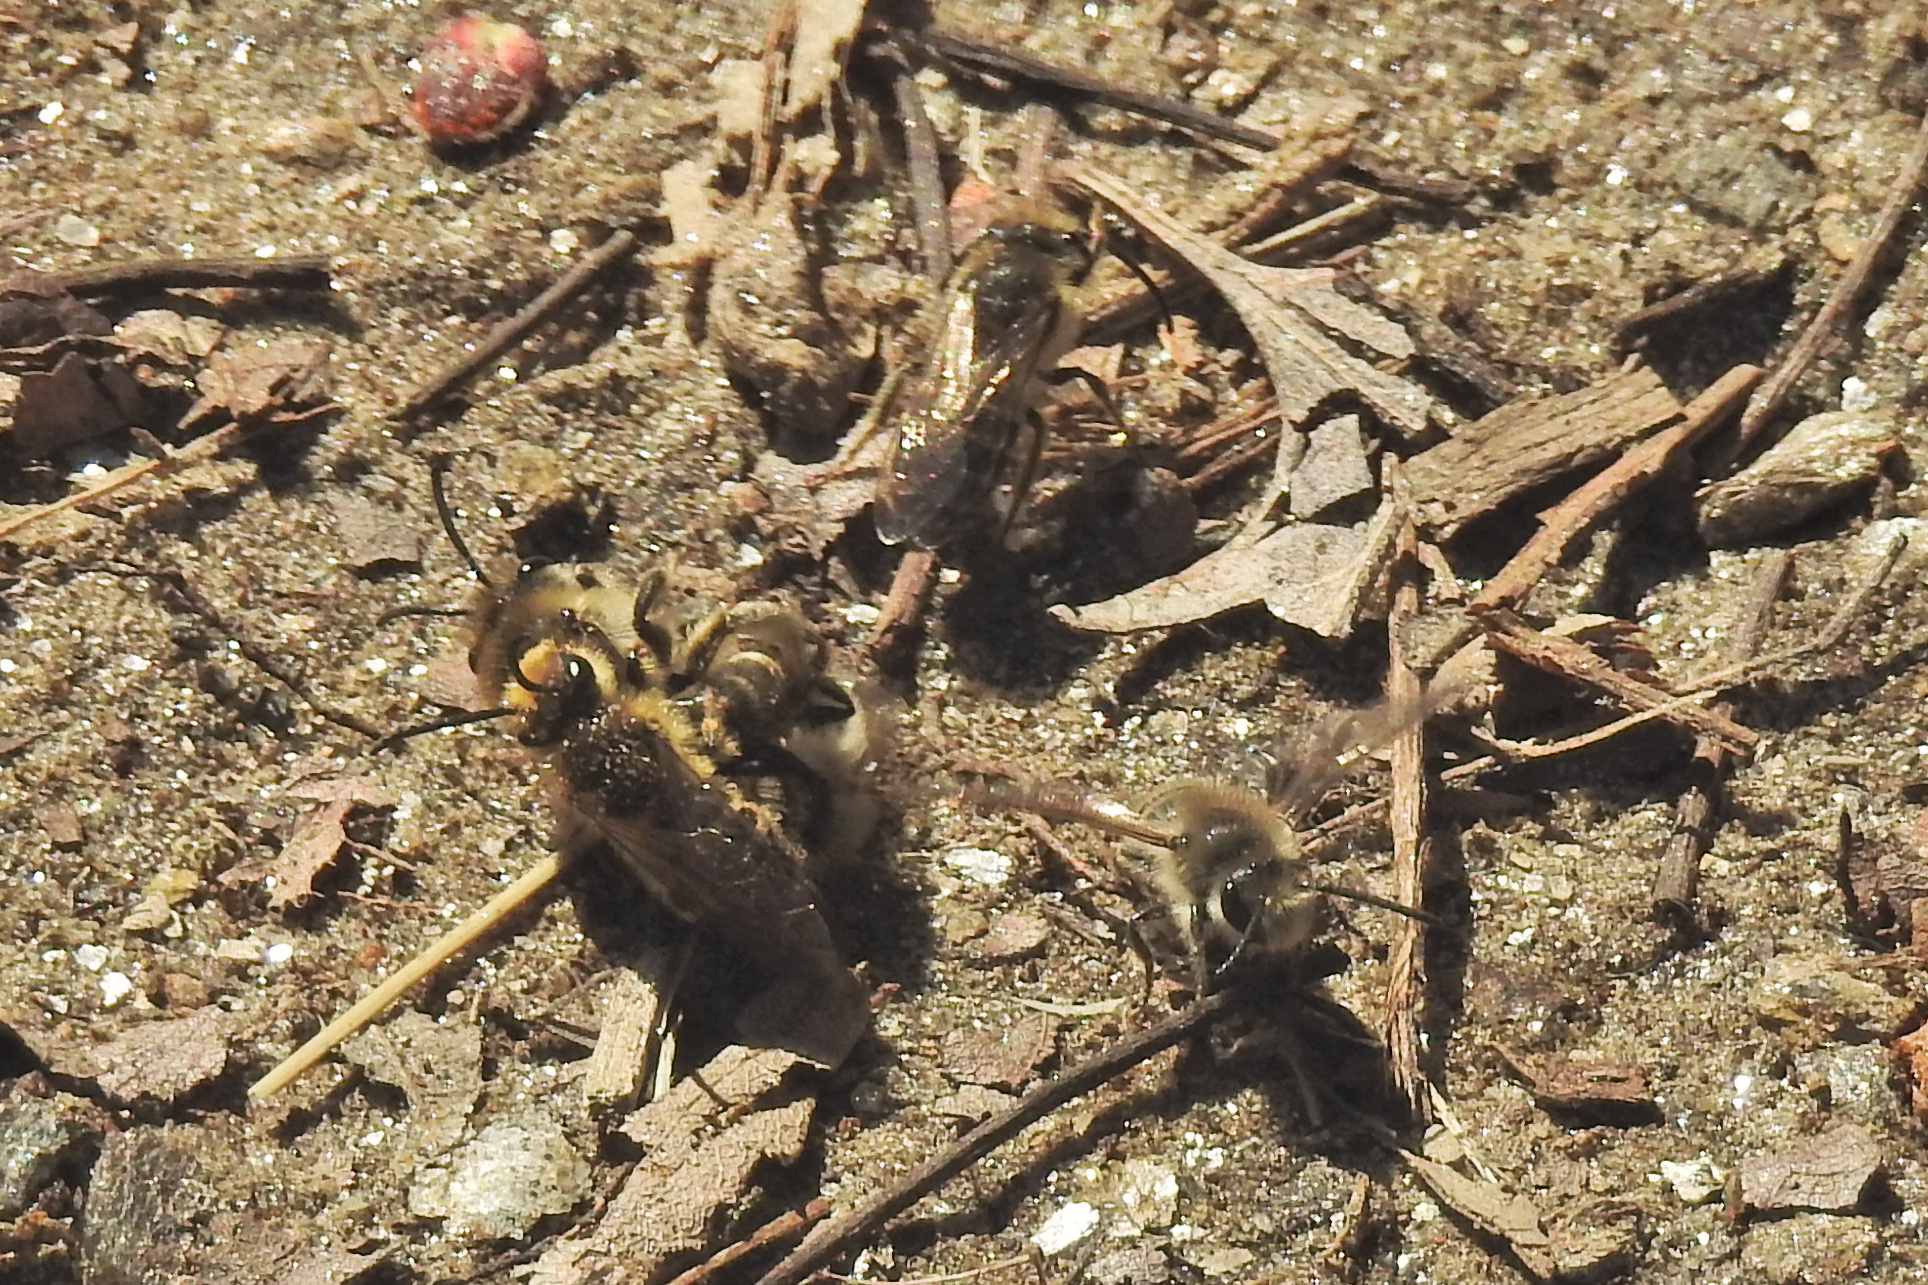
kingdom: Animalia
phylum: Arthropoda
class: Insecta
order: Hymenoptera
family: Colletidae
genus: Colletes
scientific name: Colletes inaequalis
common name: Unequal cellophane bee
